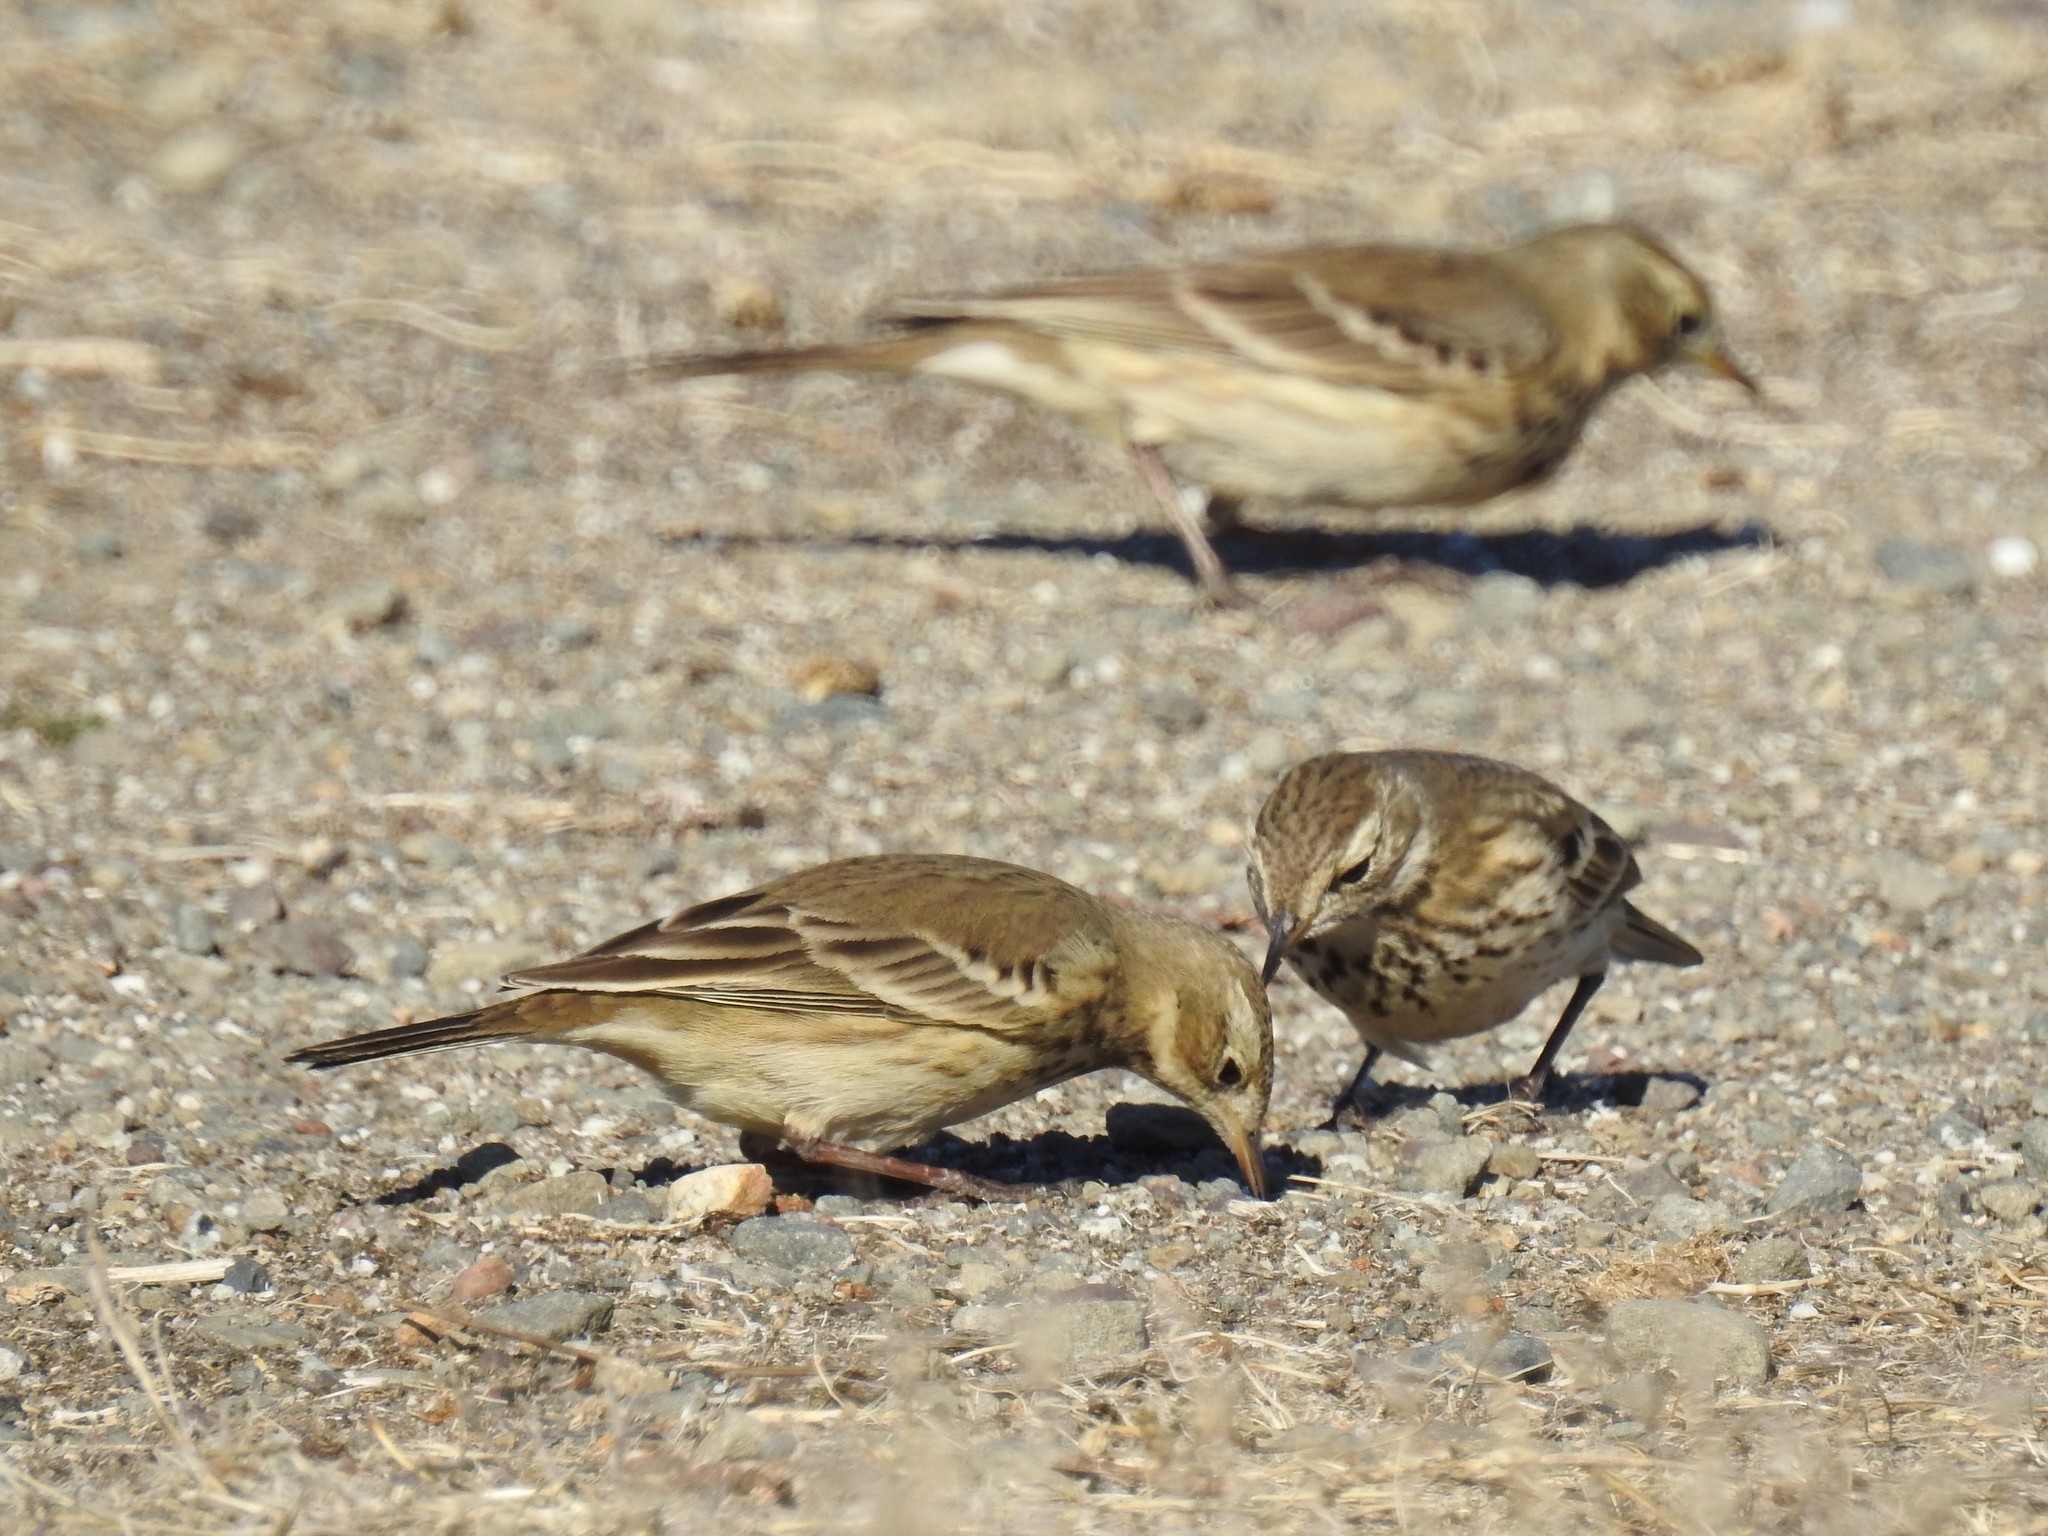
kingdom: Animalia
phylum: Chordata
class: Aves
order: Passeriformes
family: Motacillidae
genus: Anthus
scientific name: Anthus rubescens
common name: Buff-bellied pipit
